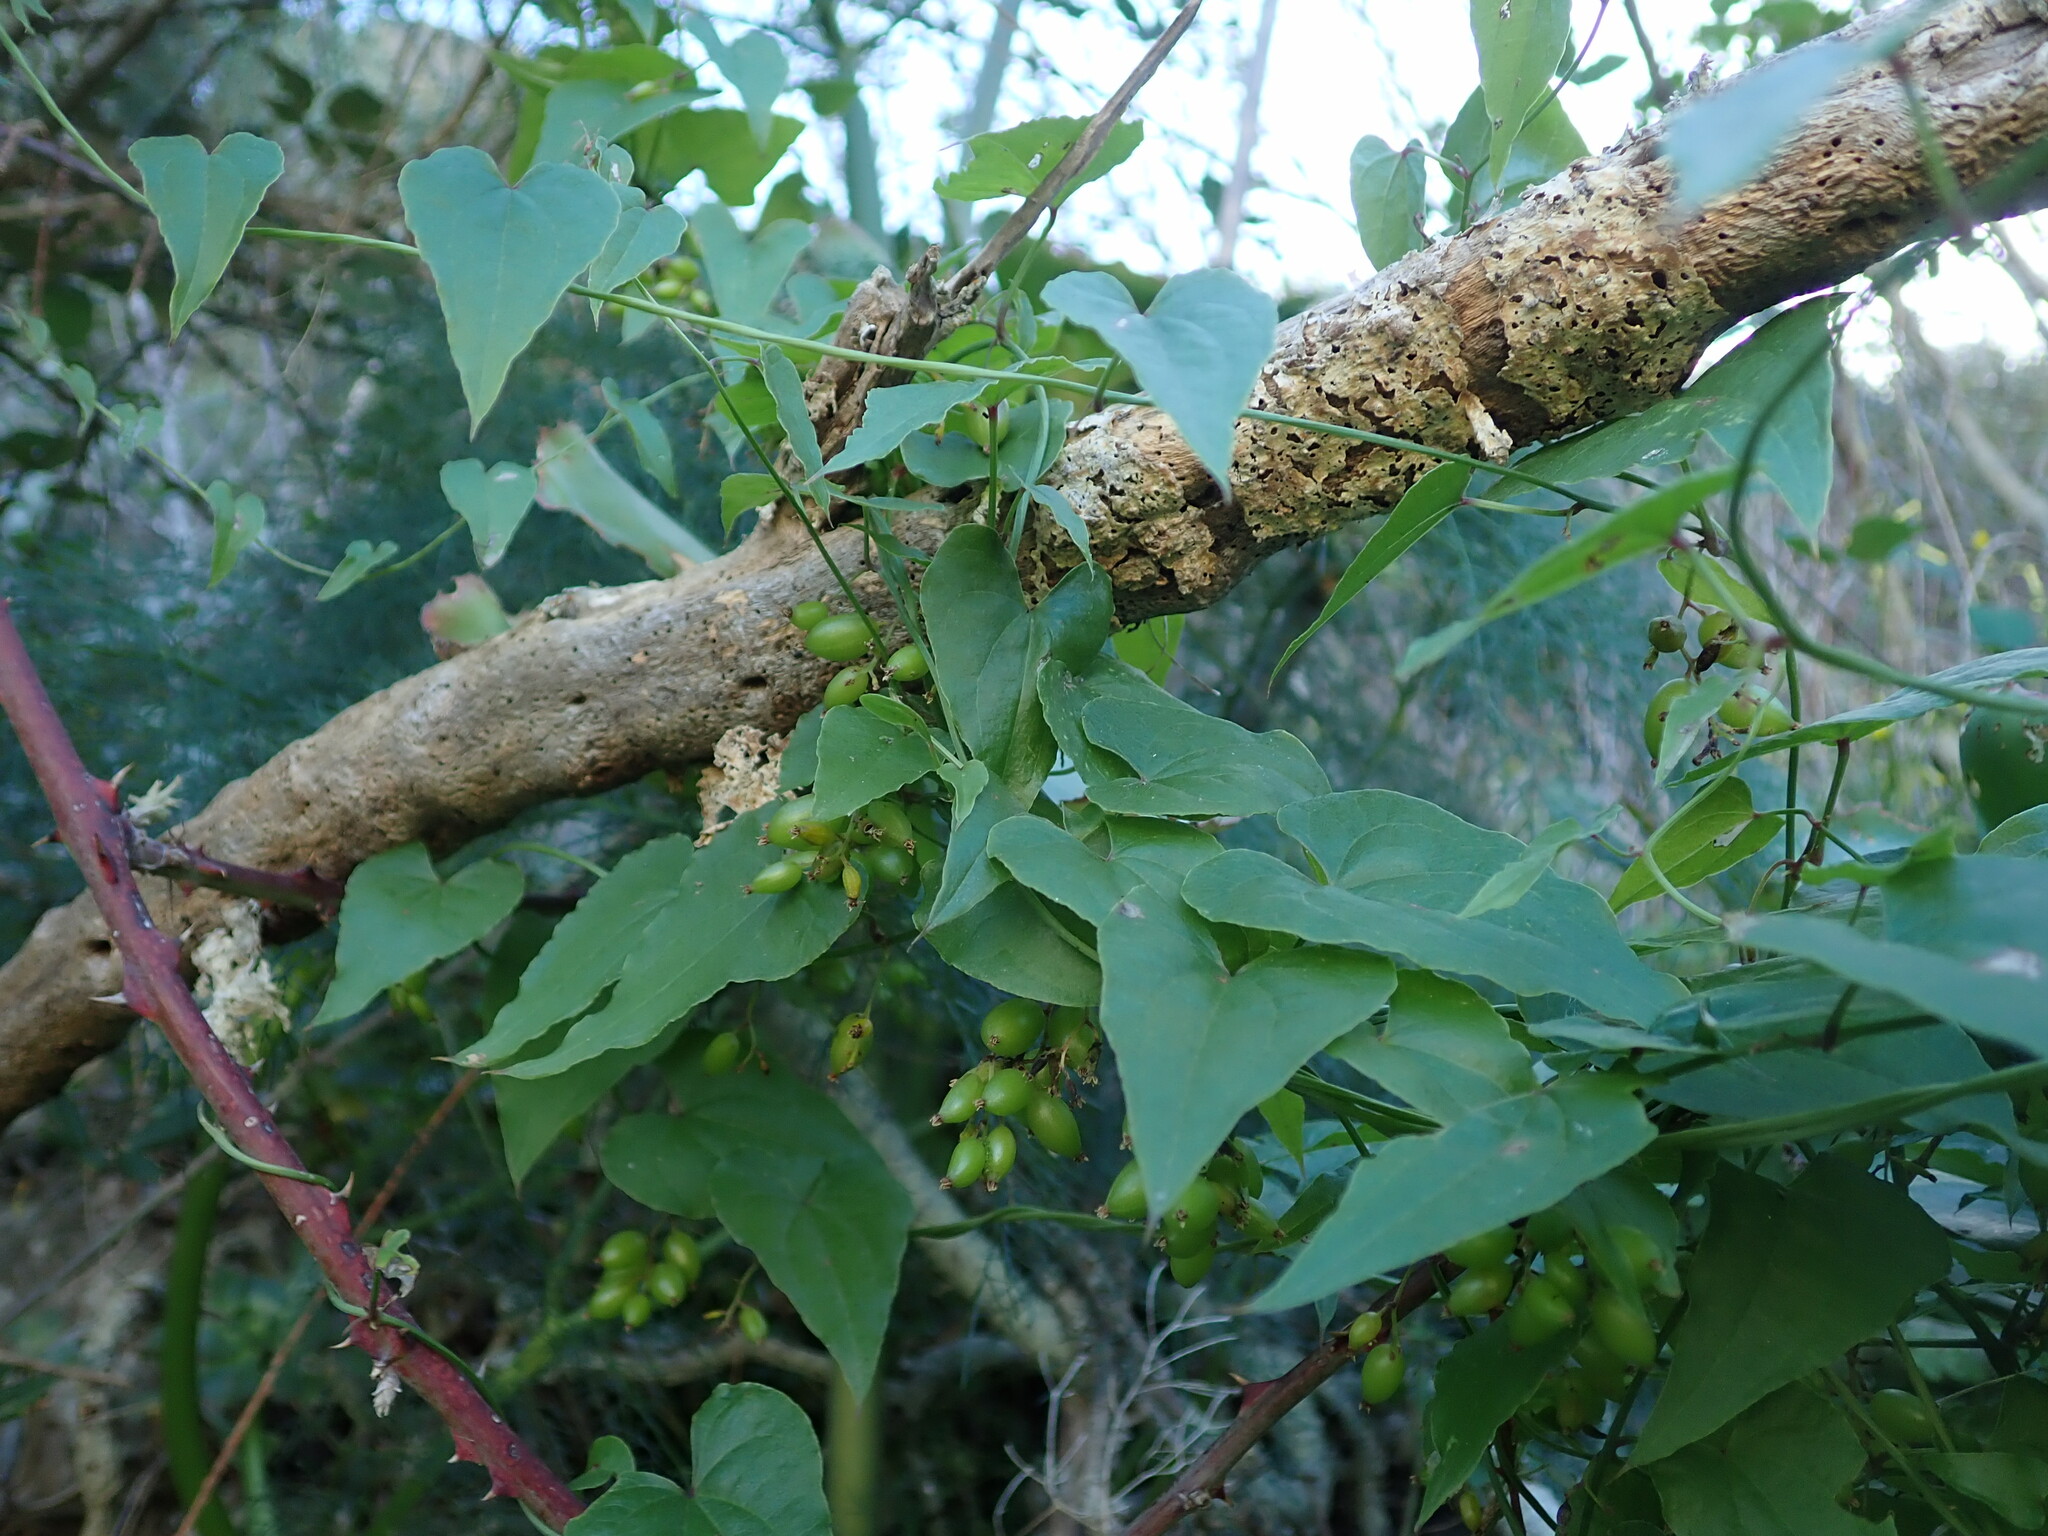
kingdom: Plantae
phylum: Tracheophyta
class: Liliopsida
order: Dioscoreales
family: Dioscoreaceae
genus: Dioscorea
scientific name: Dioscorea communis
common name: Black-bindweed
